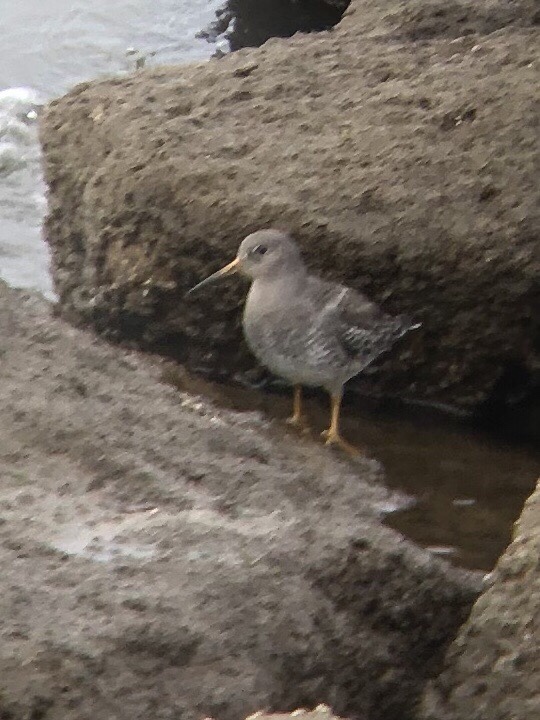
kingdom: Animalia
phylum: Chordata
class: Aves
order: Charadriiformes
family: Scolopacidae
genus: Calidris
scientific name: Calidris maritima
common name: Purple sandpiper
